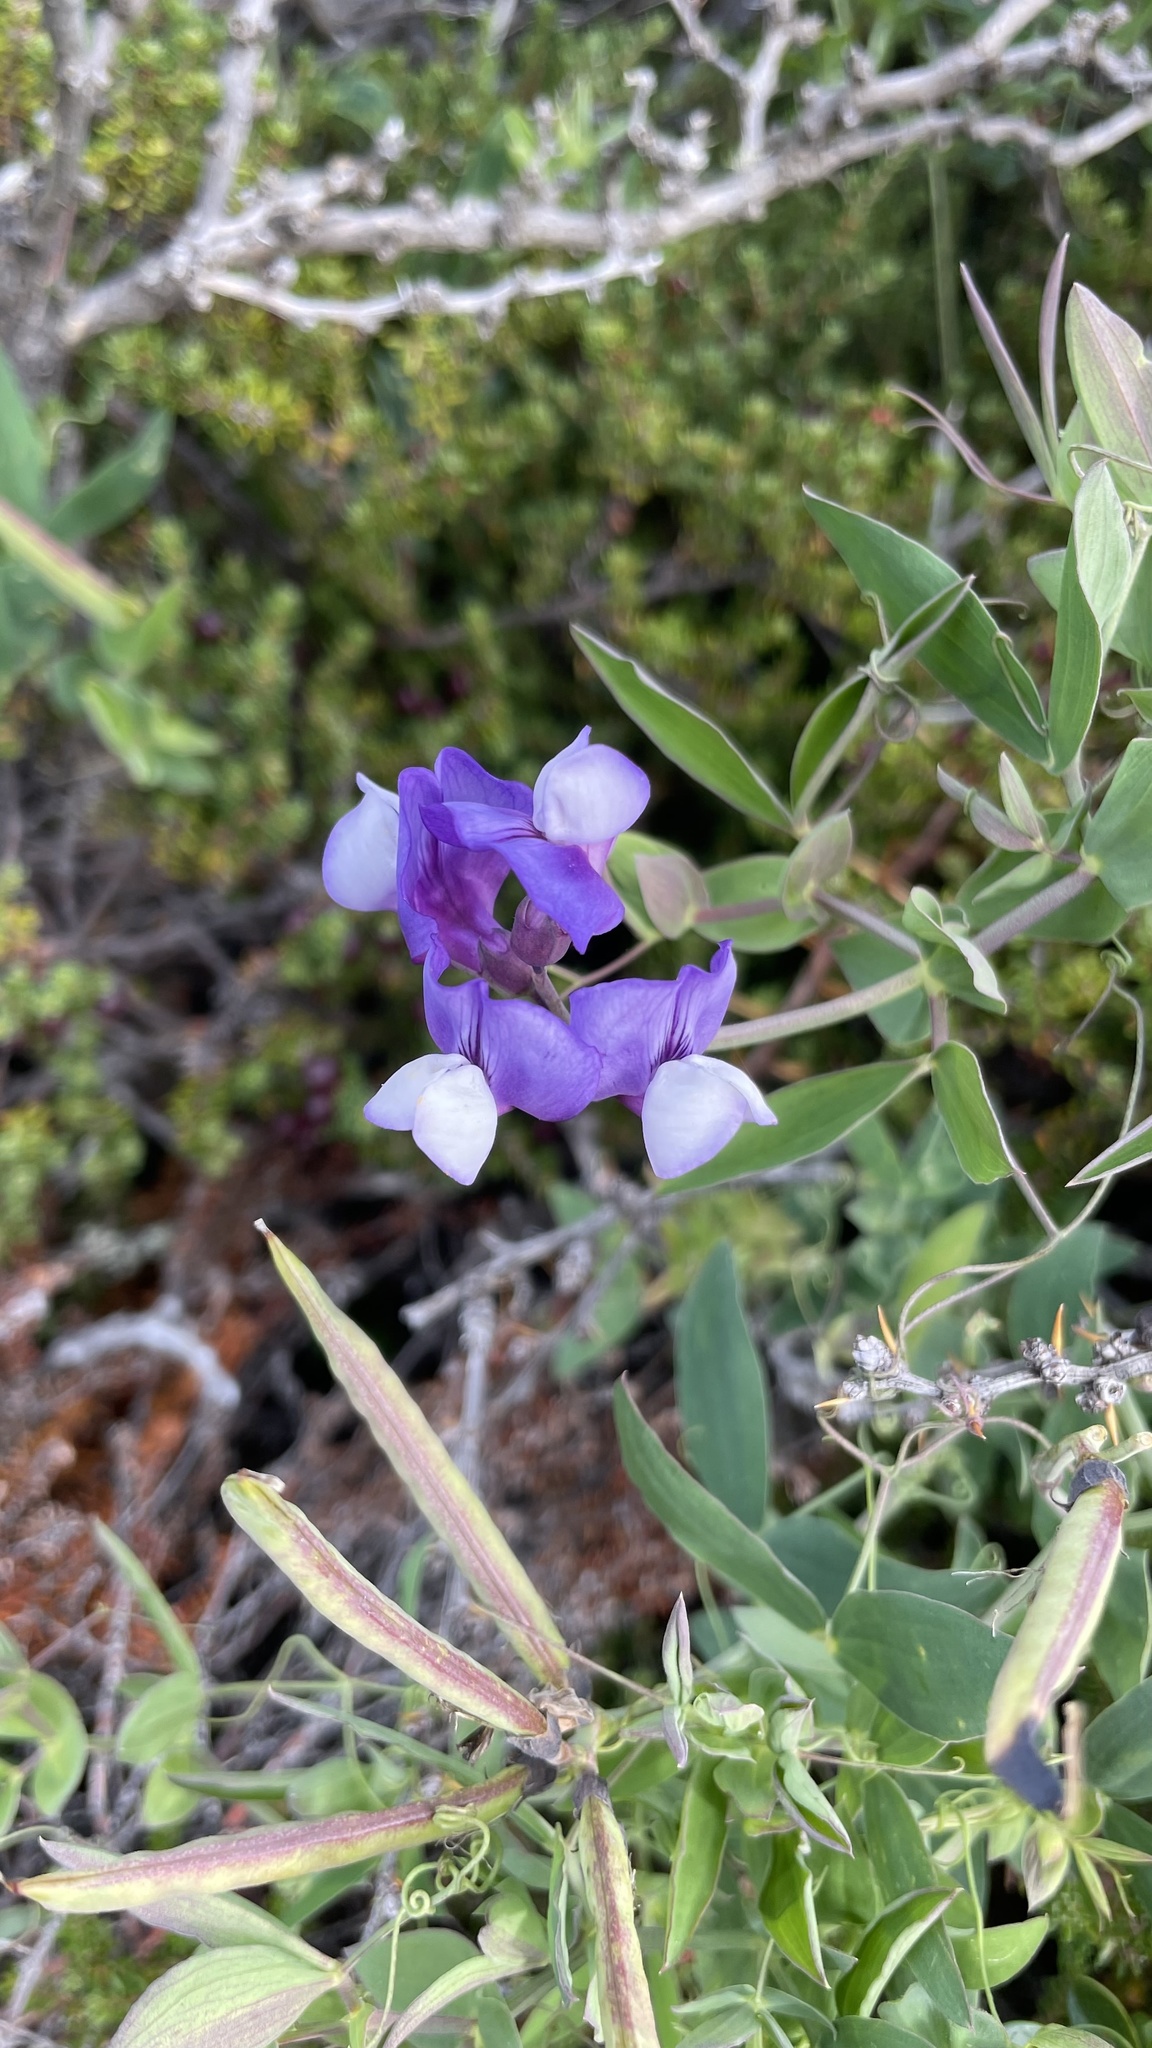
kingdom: Plantae
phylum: Tracheophyta
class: Magnoliopsida
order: Fabales
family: Fabaceae
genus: Lathyrus
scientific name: Lathyrus magellanicus
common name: Lord anson's pea
